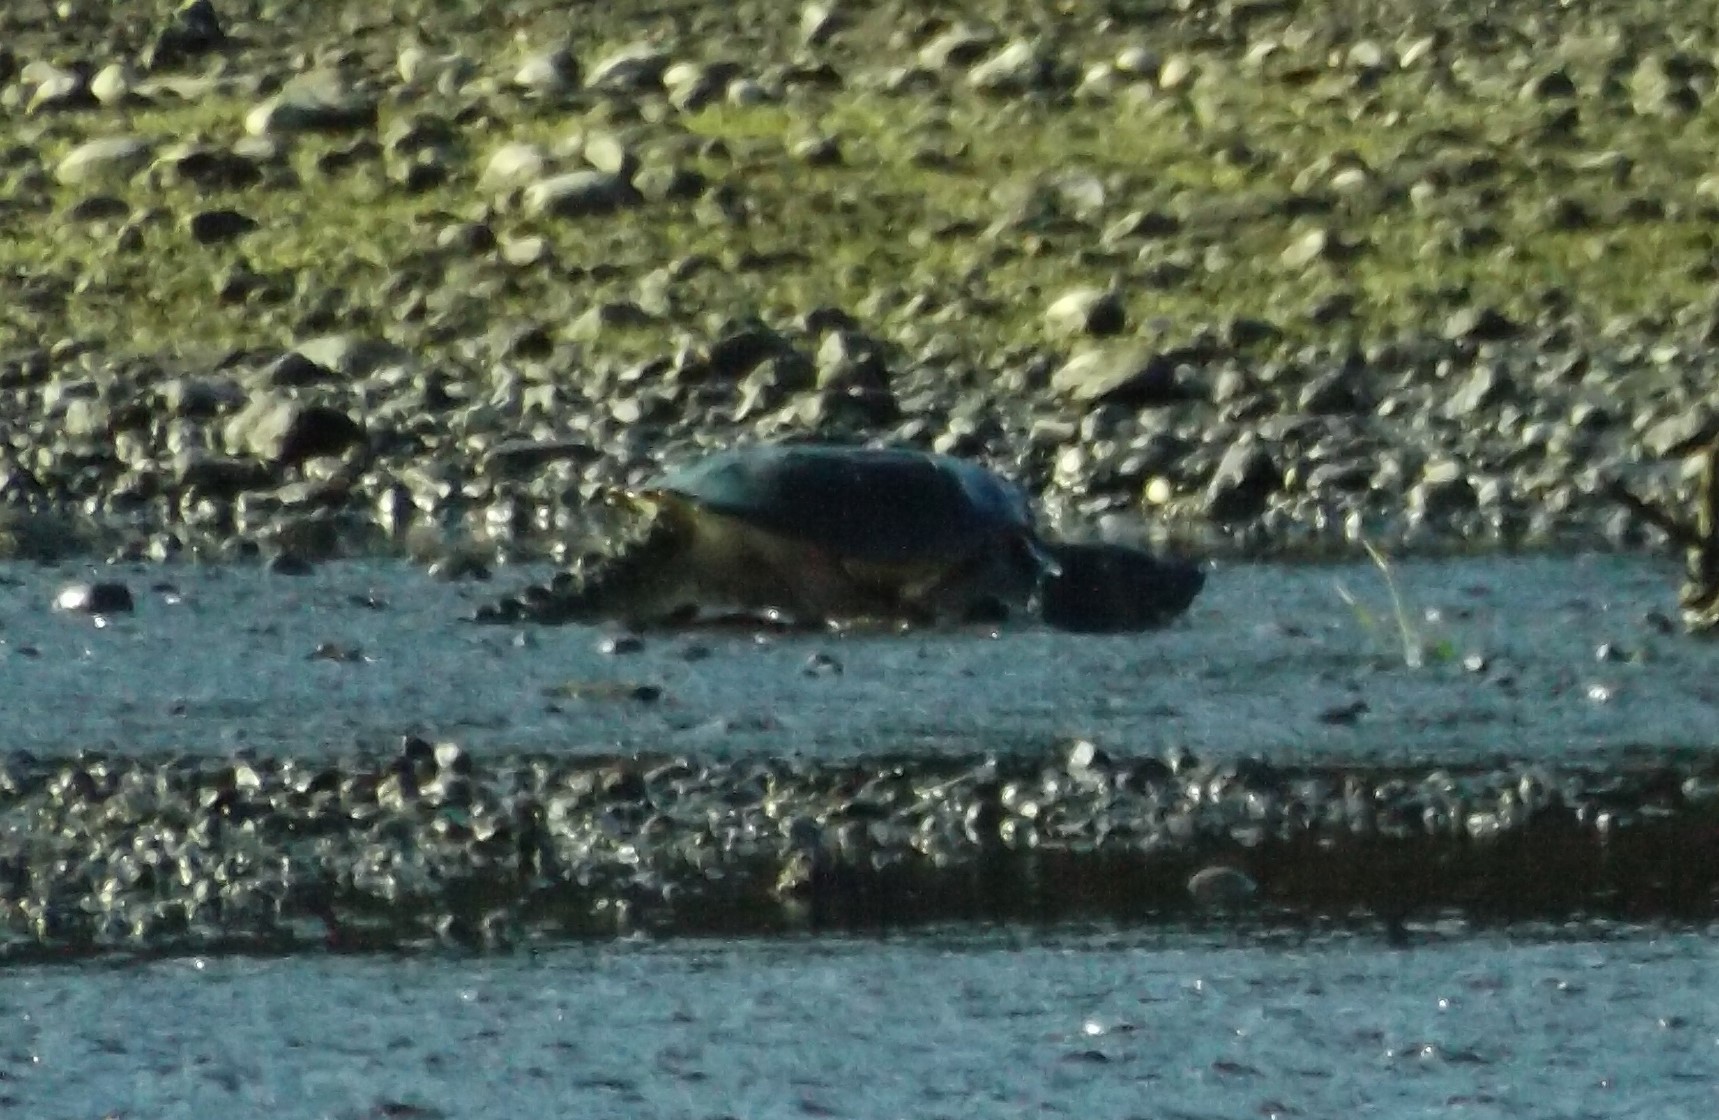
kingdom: Animalia
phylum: Chordata
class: Testudines
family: Chelydridae
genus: Chelydra
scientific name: Chelydra serpentina
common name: Common snapping turtle
